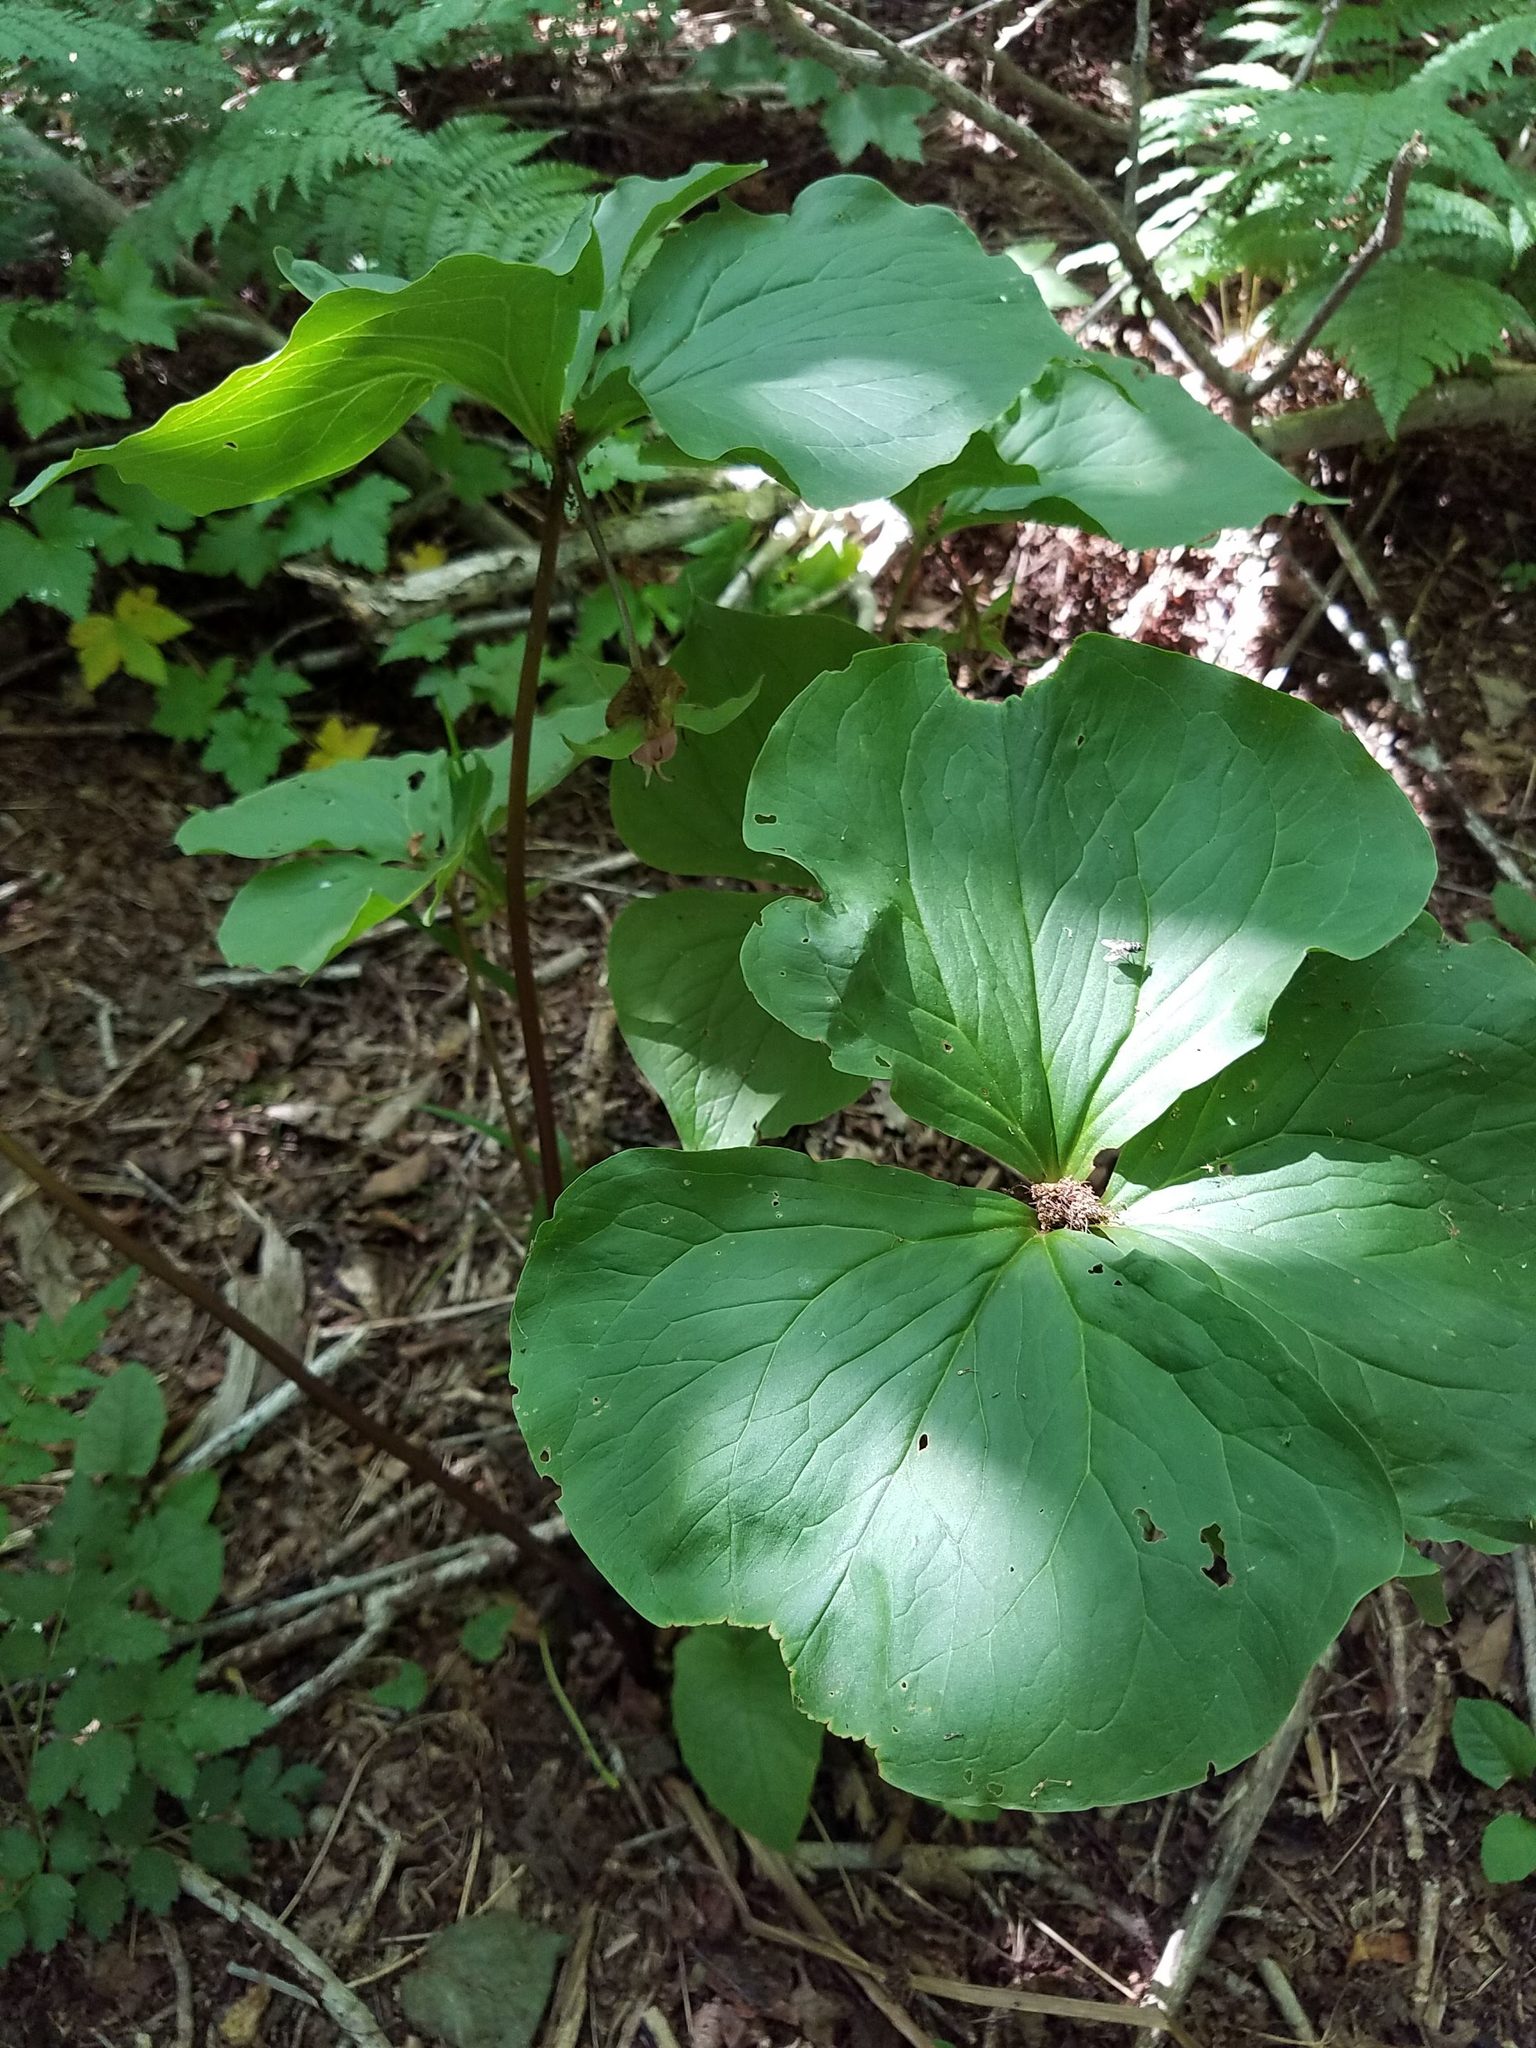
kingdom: Plantae
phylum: Tracheophyta
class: Liliopsida
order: Liliales
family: Melanthiaceae
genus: Trillium
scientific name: Trillium cernuum
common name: Nodding trillium
